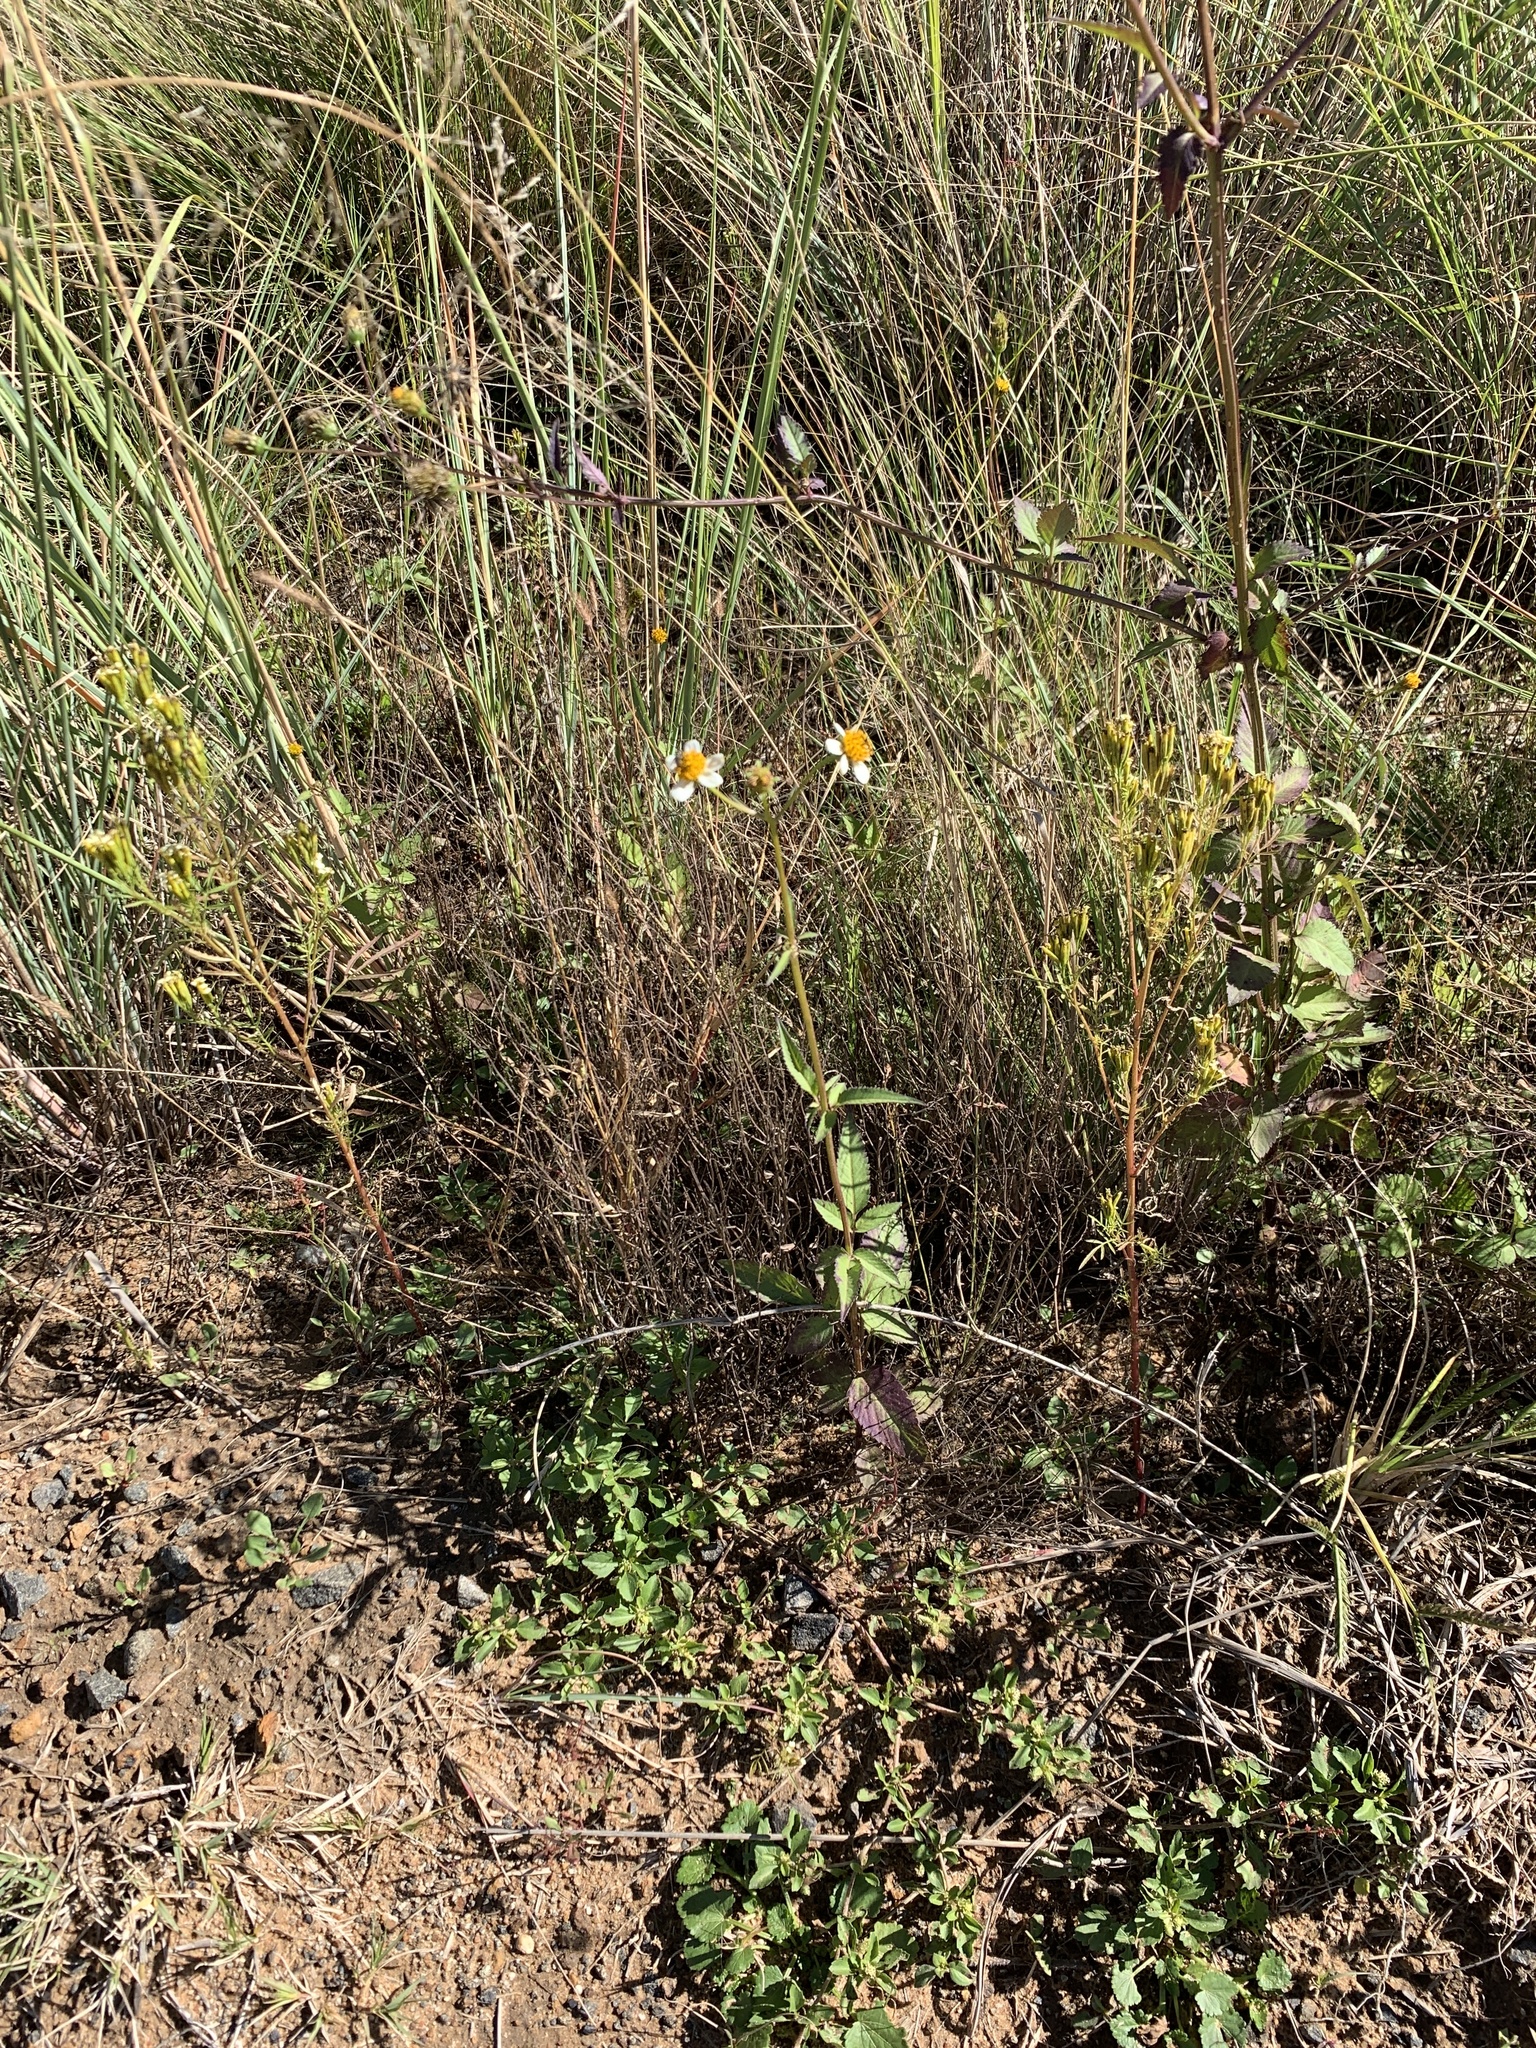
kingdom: Plantae
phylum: Tracheophyta
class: Magnoliopsida
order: Asterales
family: Asteraceae
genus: Bidens
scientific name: Bidens pilosa
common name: Black-jack
